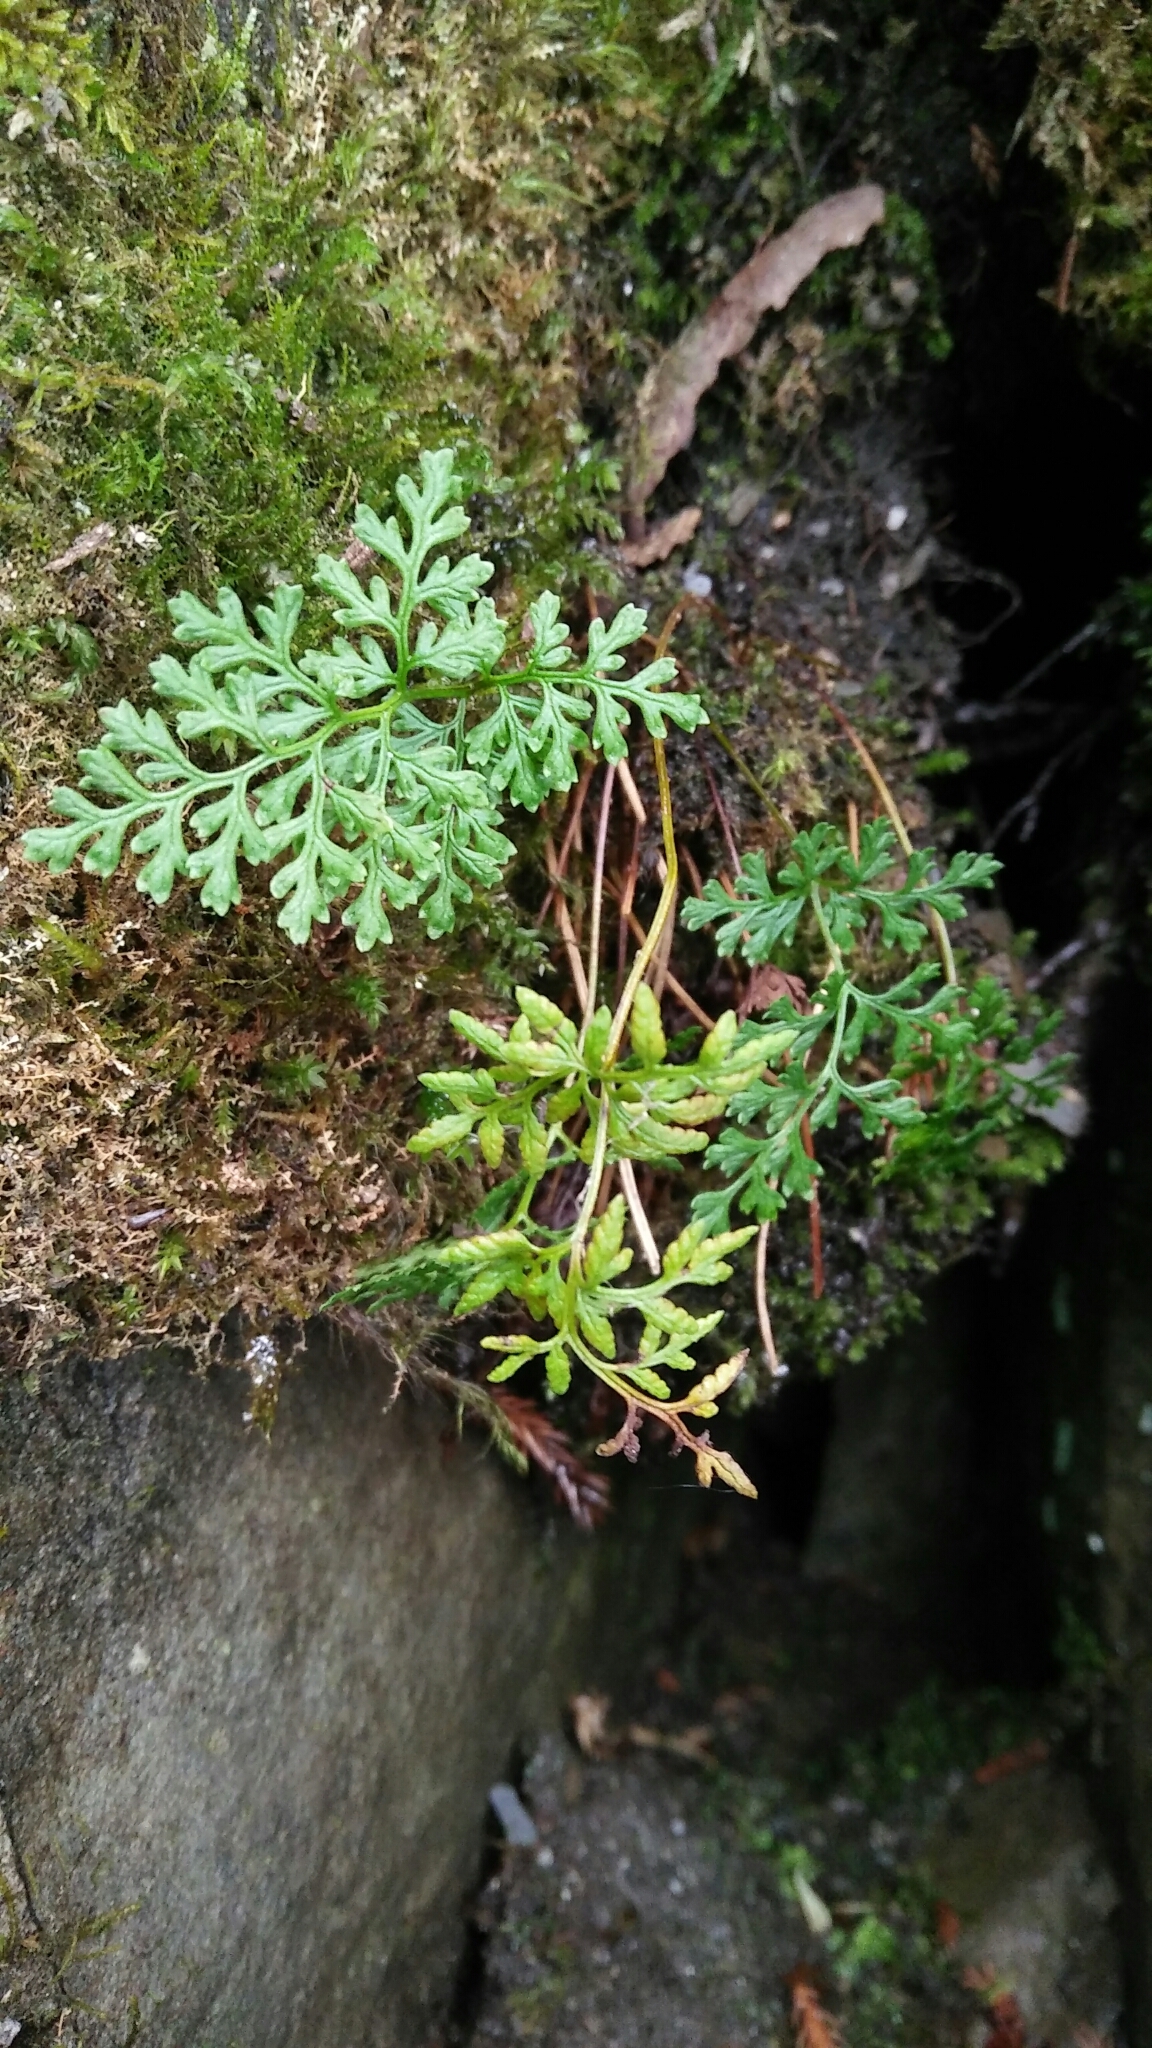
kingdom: Plantae
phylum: Tracheophyta
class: Polypodiopsida
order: Polypodiales
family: Pteridaceae
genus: Cryptogramma
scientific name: Cryptogramma brunoniana
